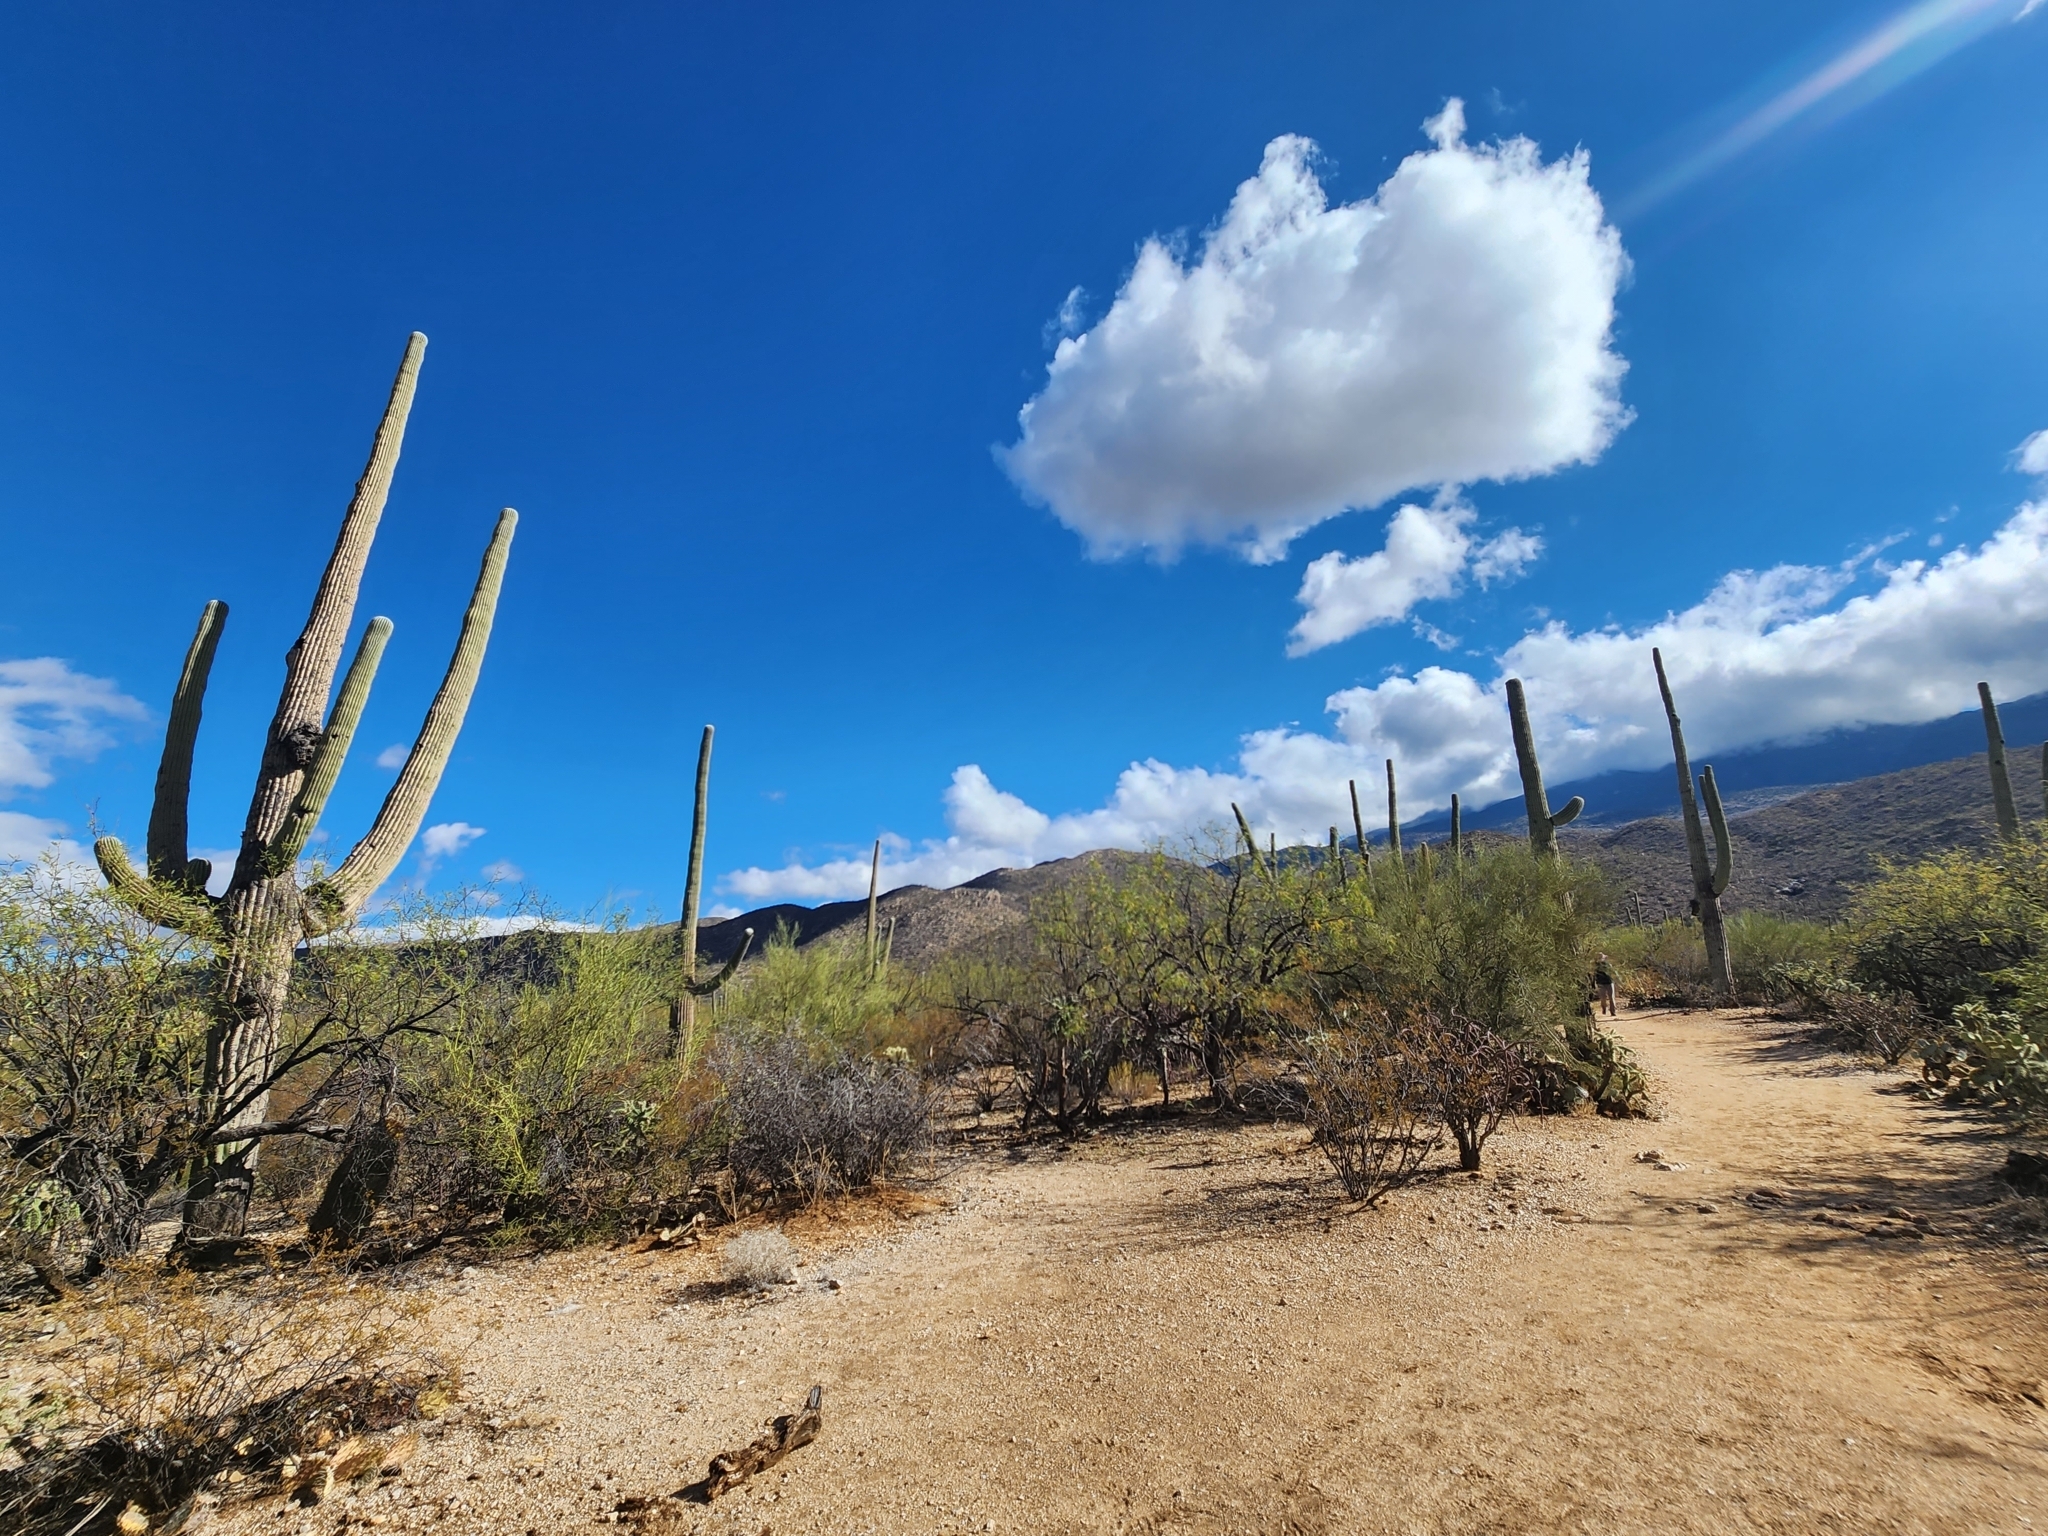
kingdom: Plantae
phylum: Tracheophyta
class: Magnoliopsida
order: Caryophyllales
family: Cactaceae
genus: Carnegiea
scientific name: Carnegiea gigantea
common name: Saguaro
